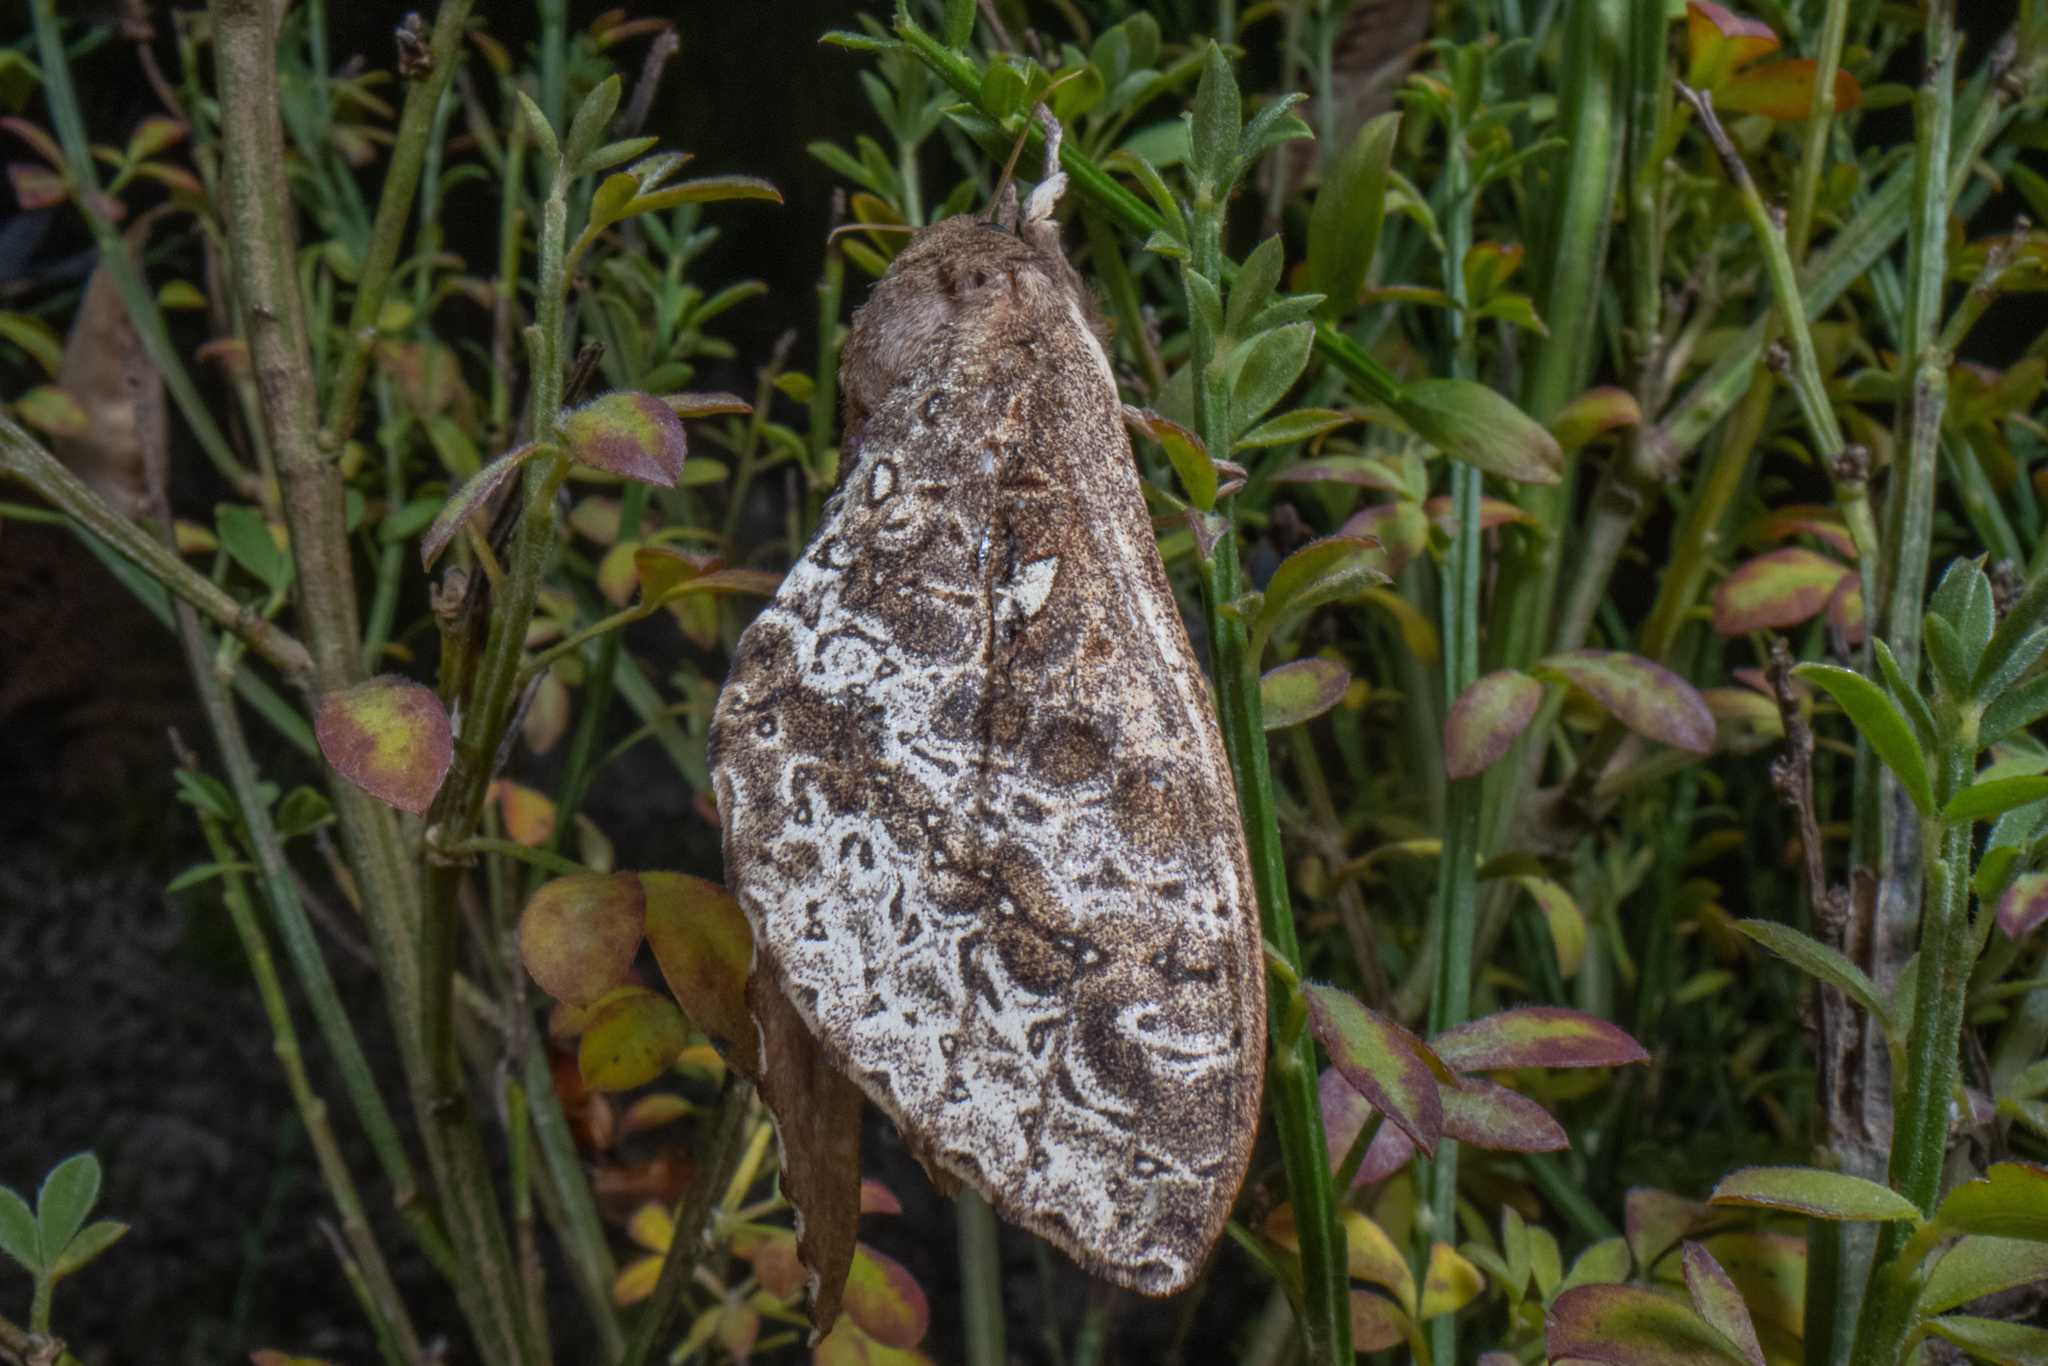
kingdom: Animalia
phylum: Arthropoda
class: Insecta
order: Lepidoptera
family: Hepialidae
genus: Dumbletonius
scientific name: Dumbletonius unimaculata
